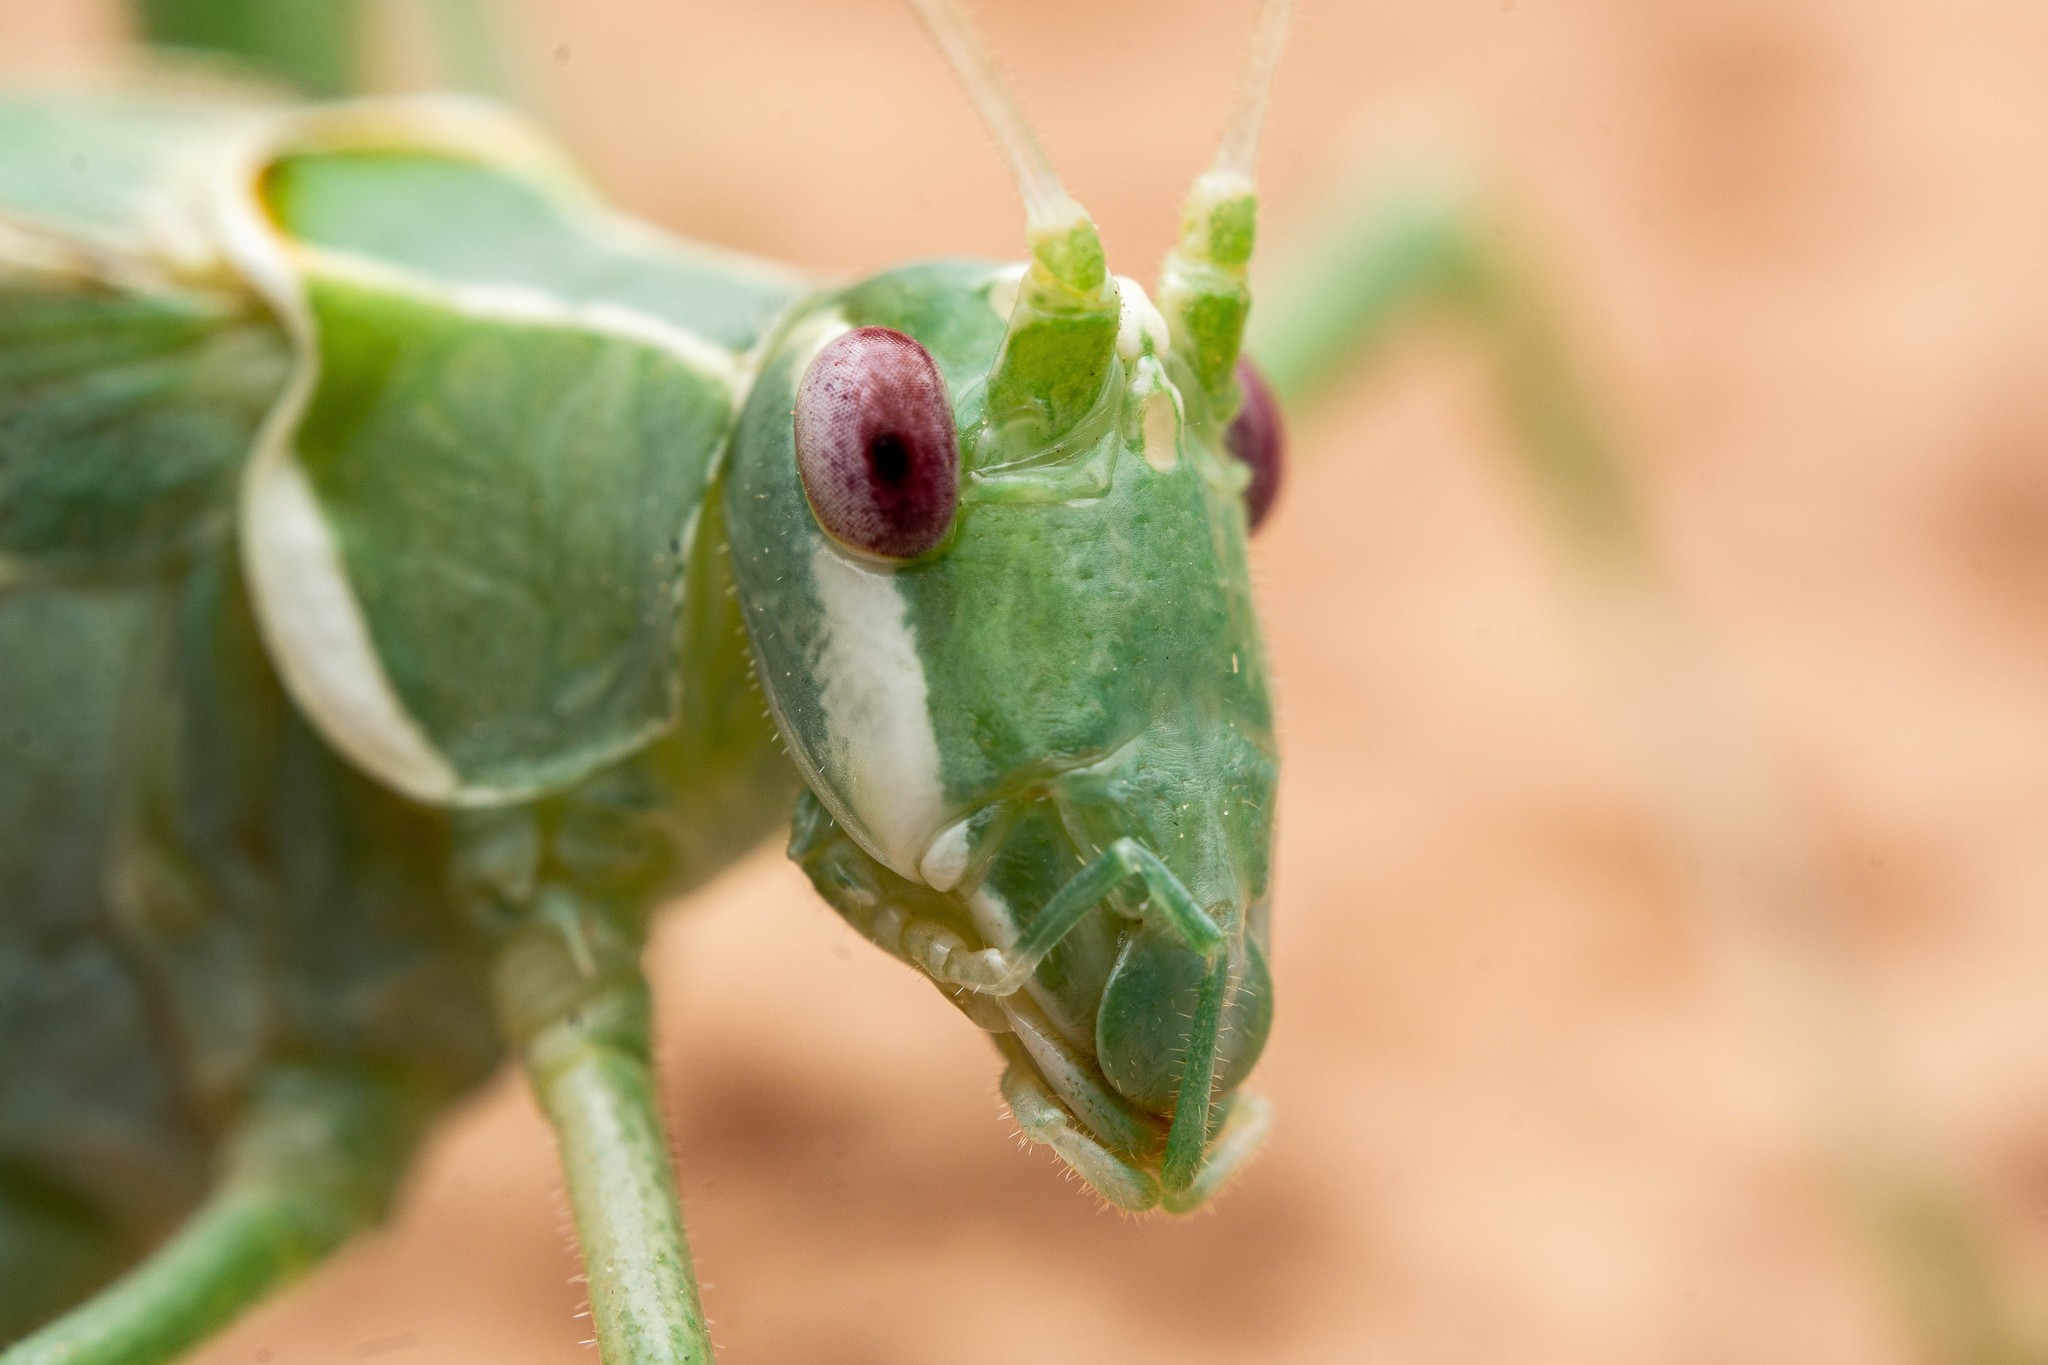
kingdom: Animalia
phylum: Arthropoda
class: Insecta
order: Orthoptera
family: Tettigoniidae
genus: Insara
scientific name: Insara elegans
